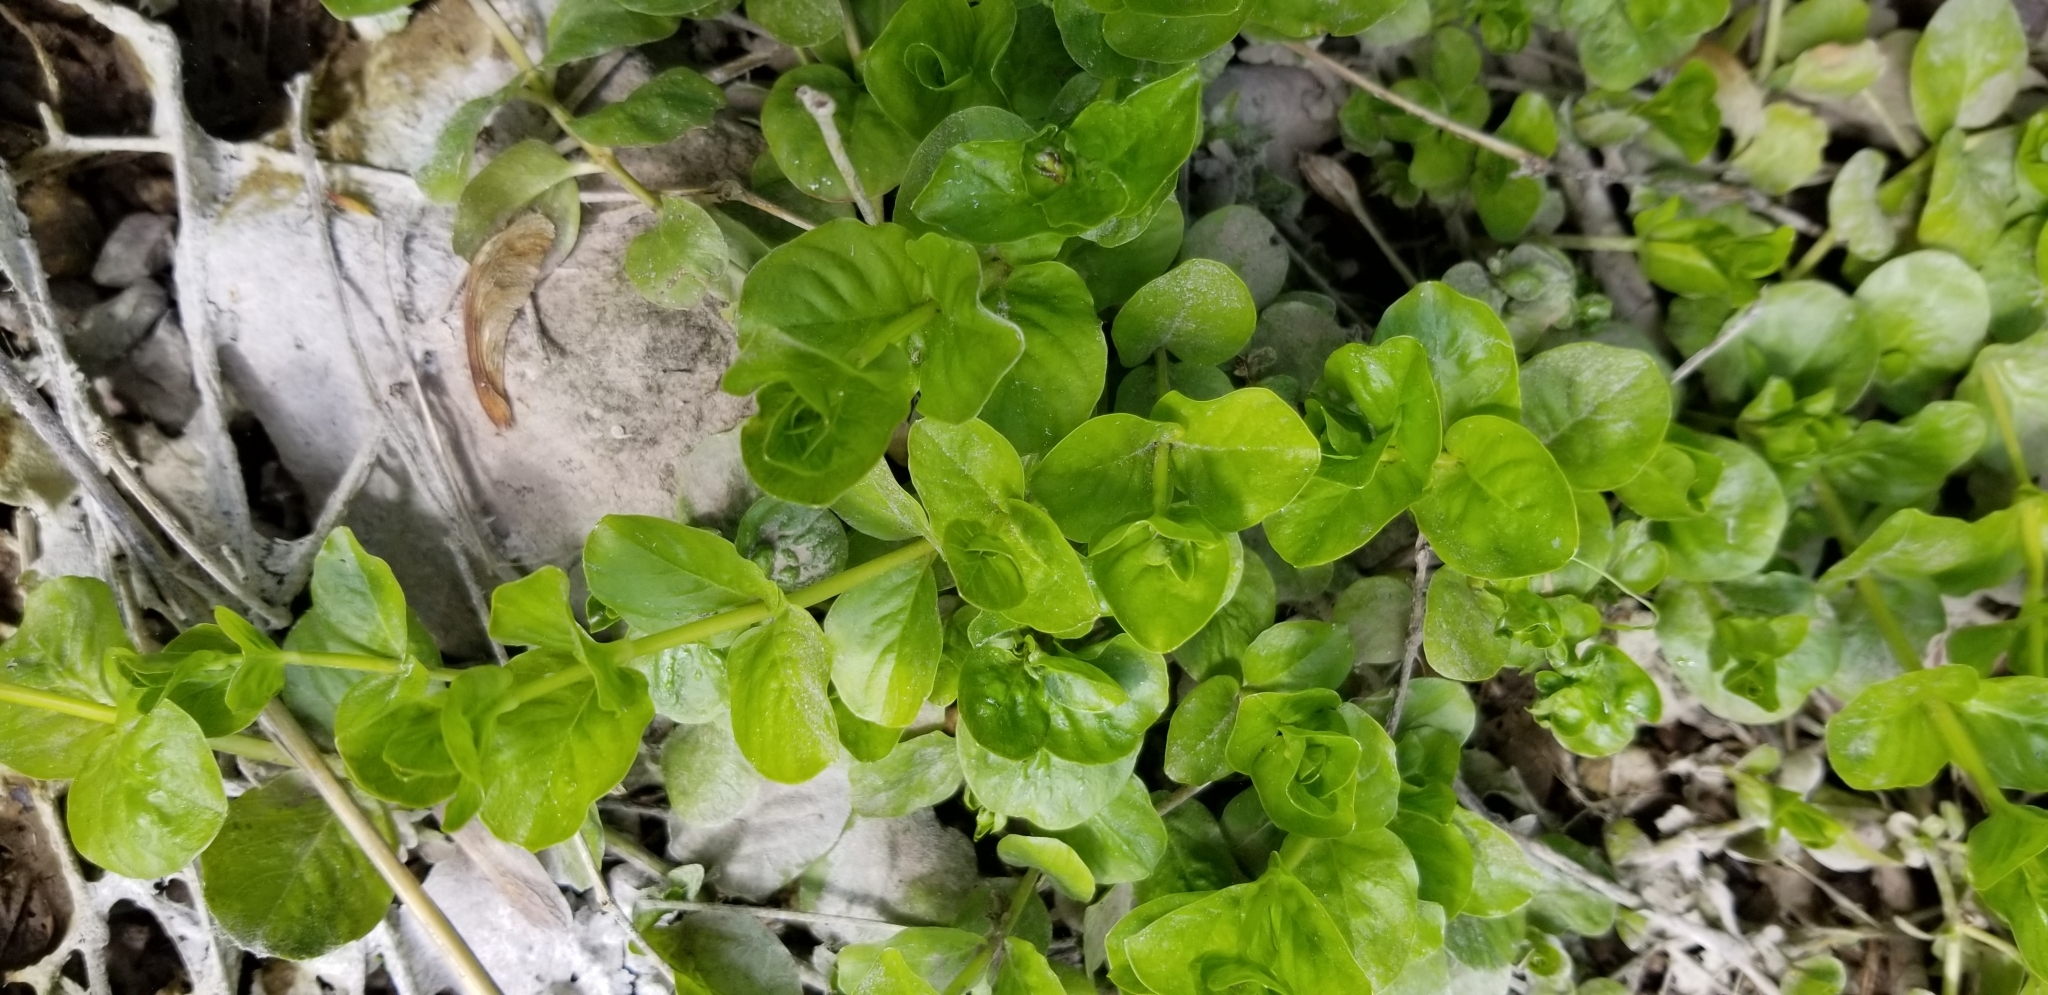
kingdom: Plantae
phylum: Tracheophyta
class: Magnoliopsida
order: Ericales
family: Primulaceae
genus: Lysimachia
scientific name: Lysimachia nummularia
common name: Moneywort
